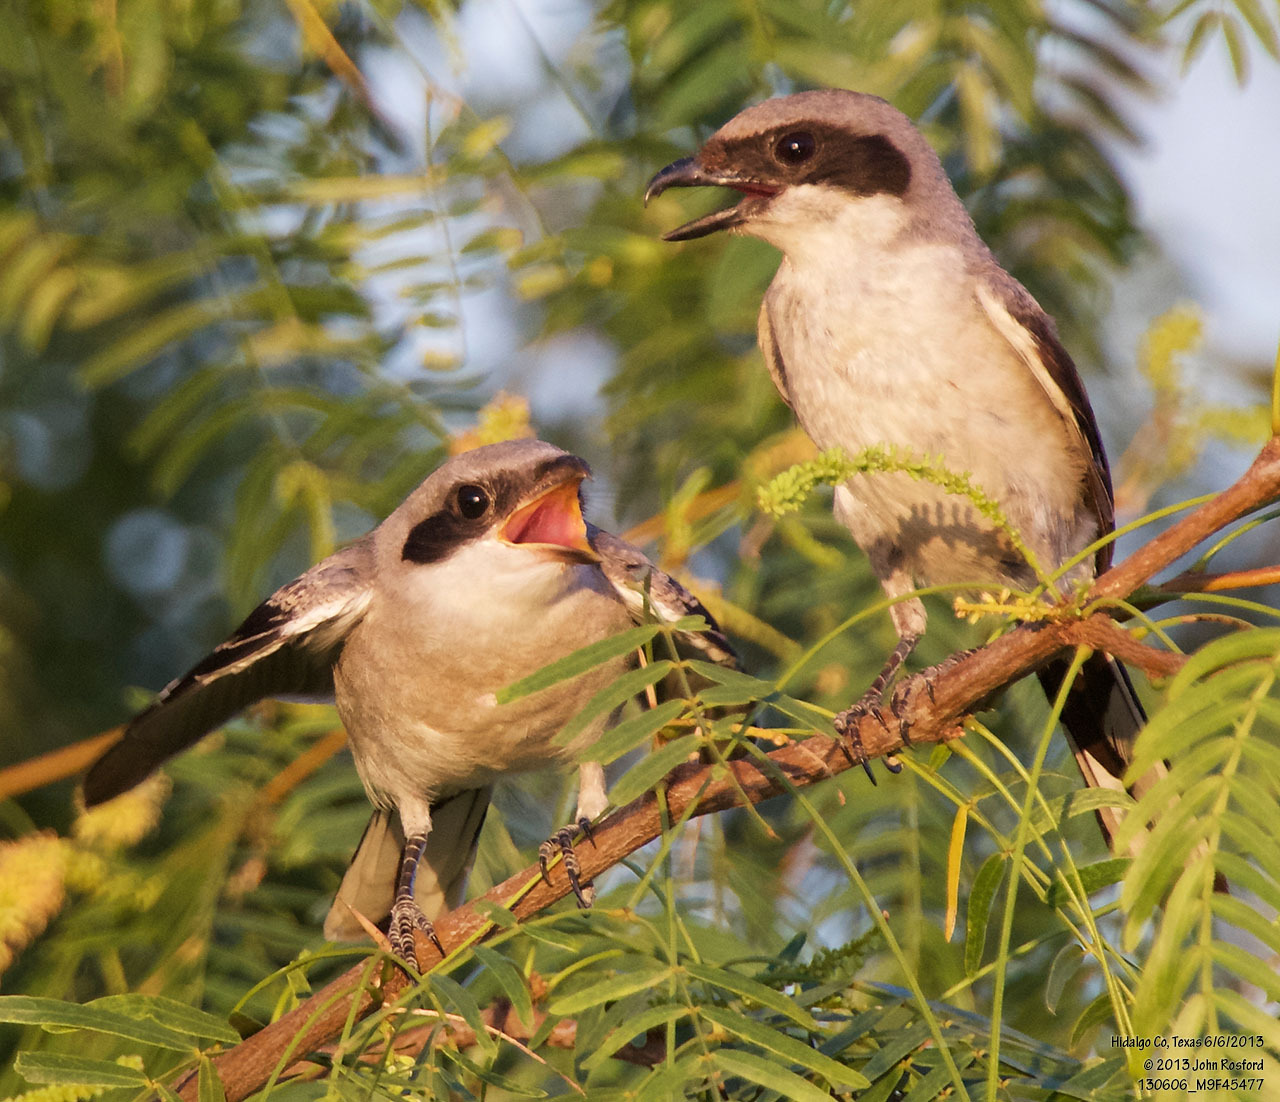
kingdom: Animalia
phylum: Chordata
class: Aves
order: Passeriformes
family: Laniidae
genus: Lanius
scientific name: Lanius ludovicianus
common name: Loggerhead shrike
